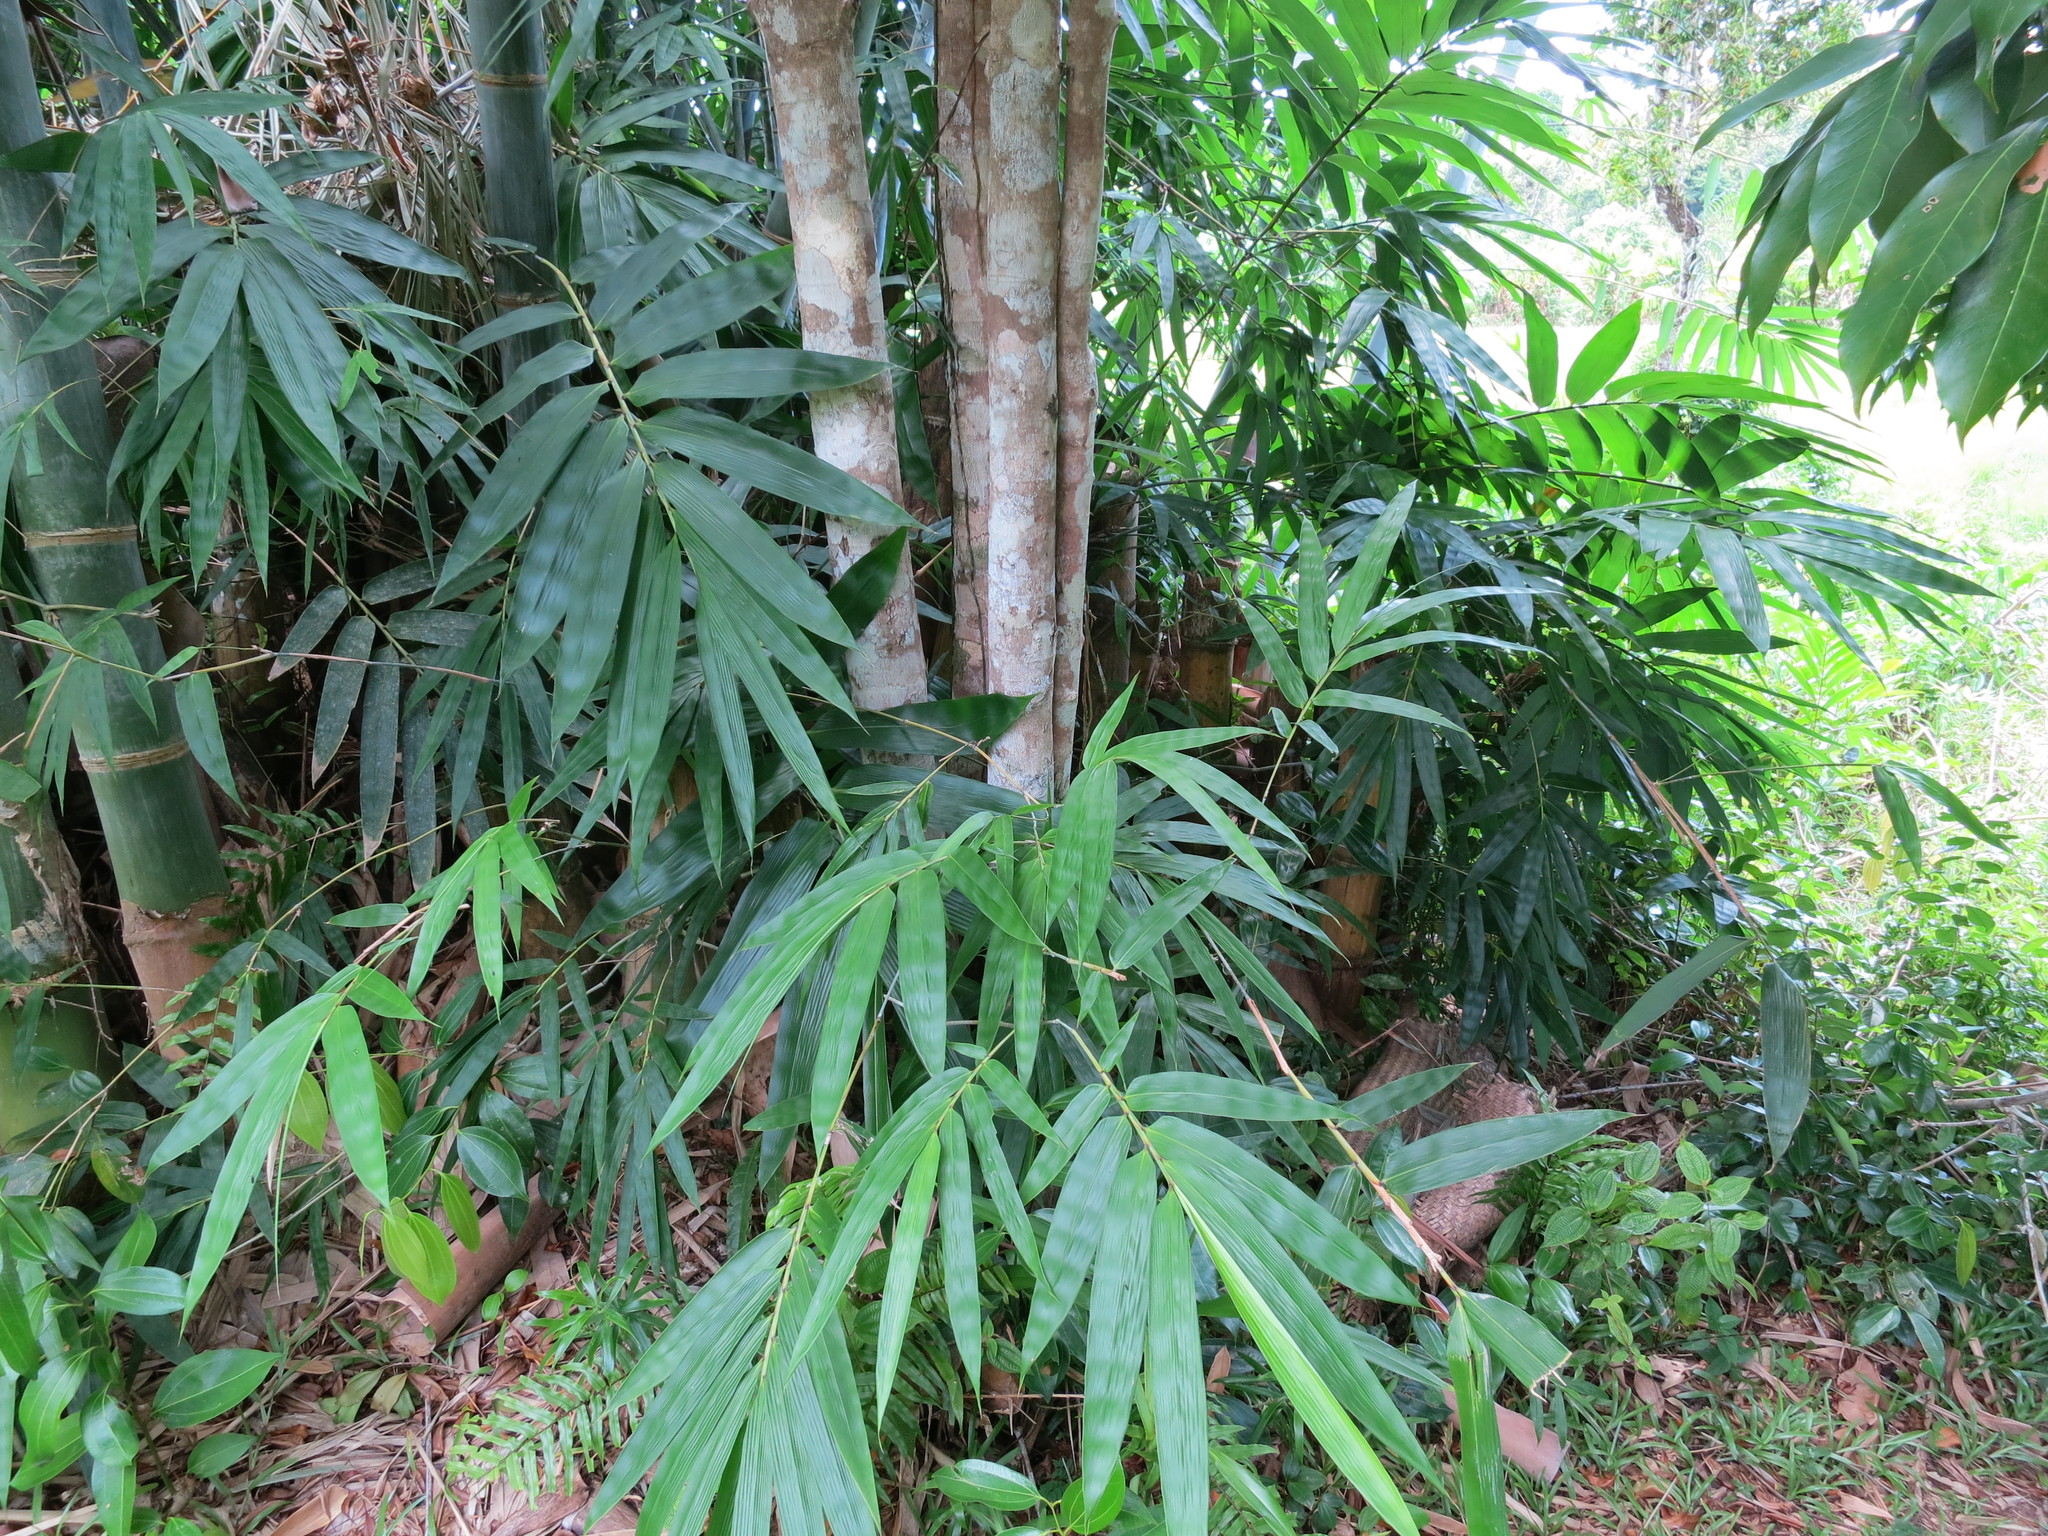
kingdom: Plantae
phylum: Tracheophyta
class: Liliopsida
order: Poales
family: Poaceae
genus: Dendrocalamus
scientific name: Dendrocalamus giganteus
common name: Giant bamboo
